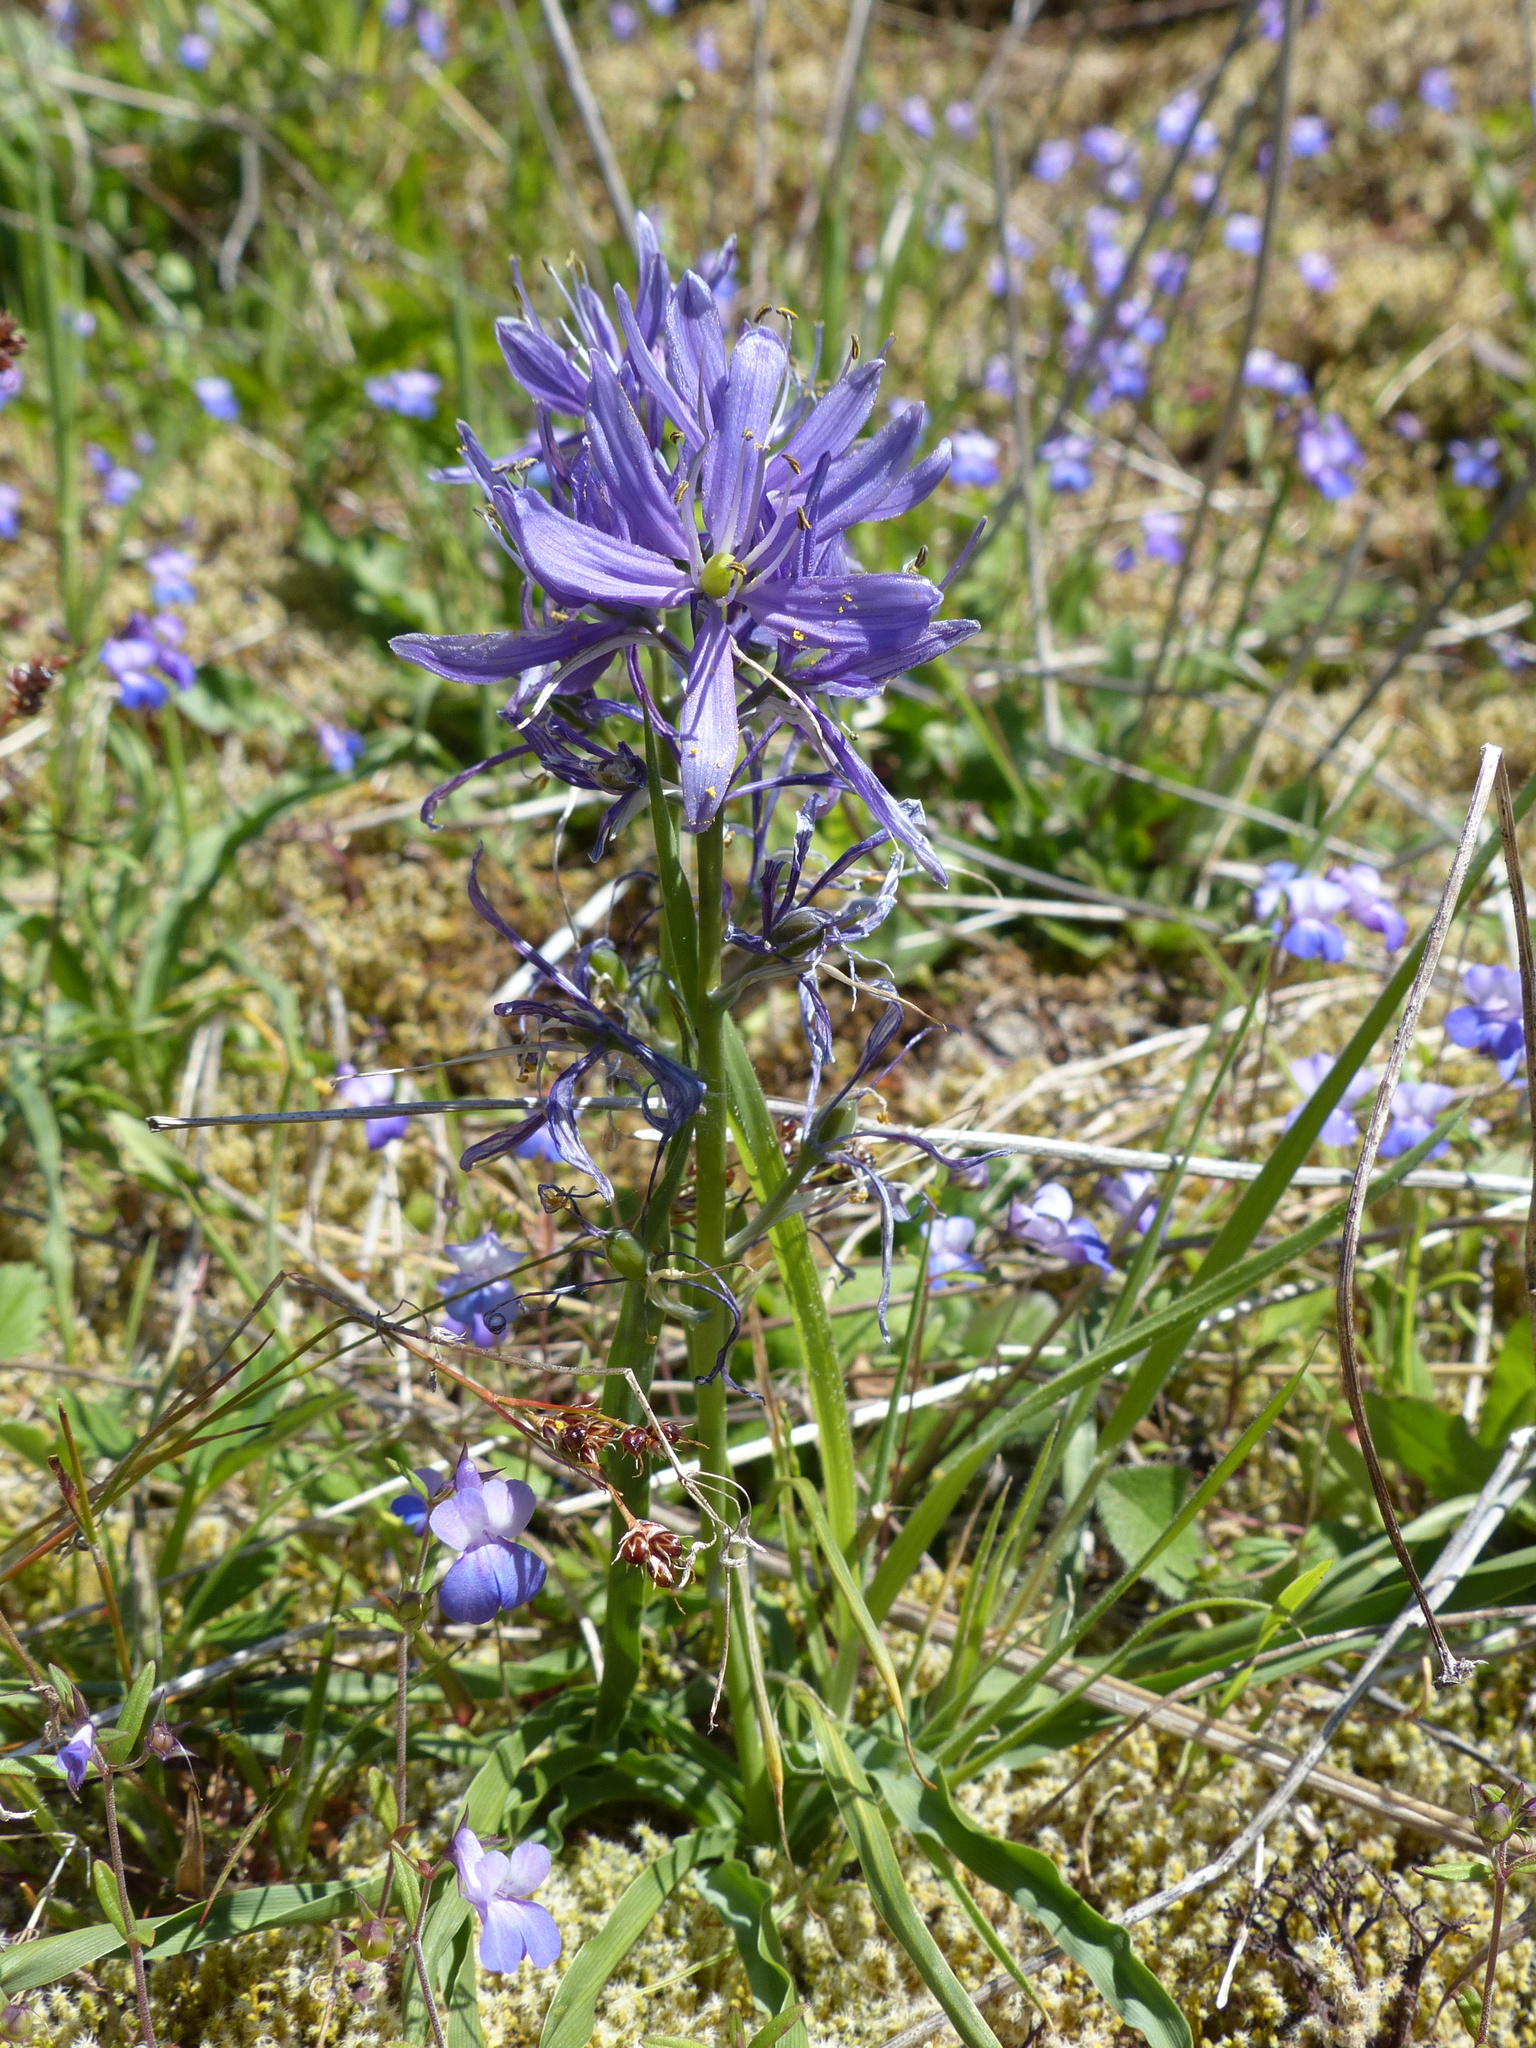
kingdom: Plantae
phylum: Tracheophyta
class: Liliopsida
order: Asparagales
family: Asparagaceae
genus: Camassia
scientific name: Camassia quamash
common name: Common camas
